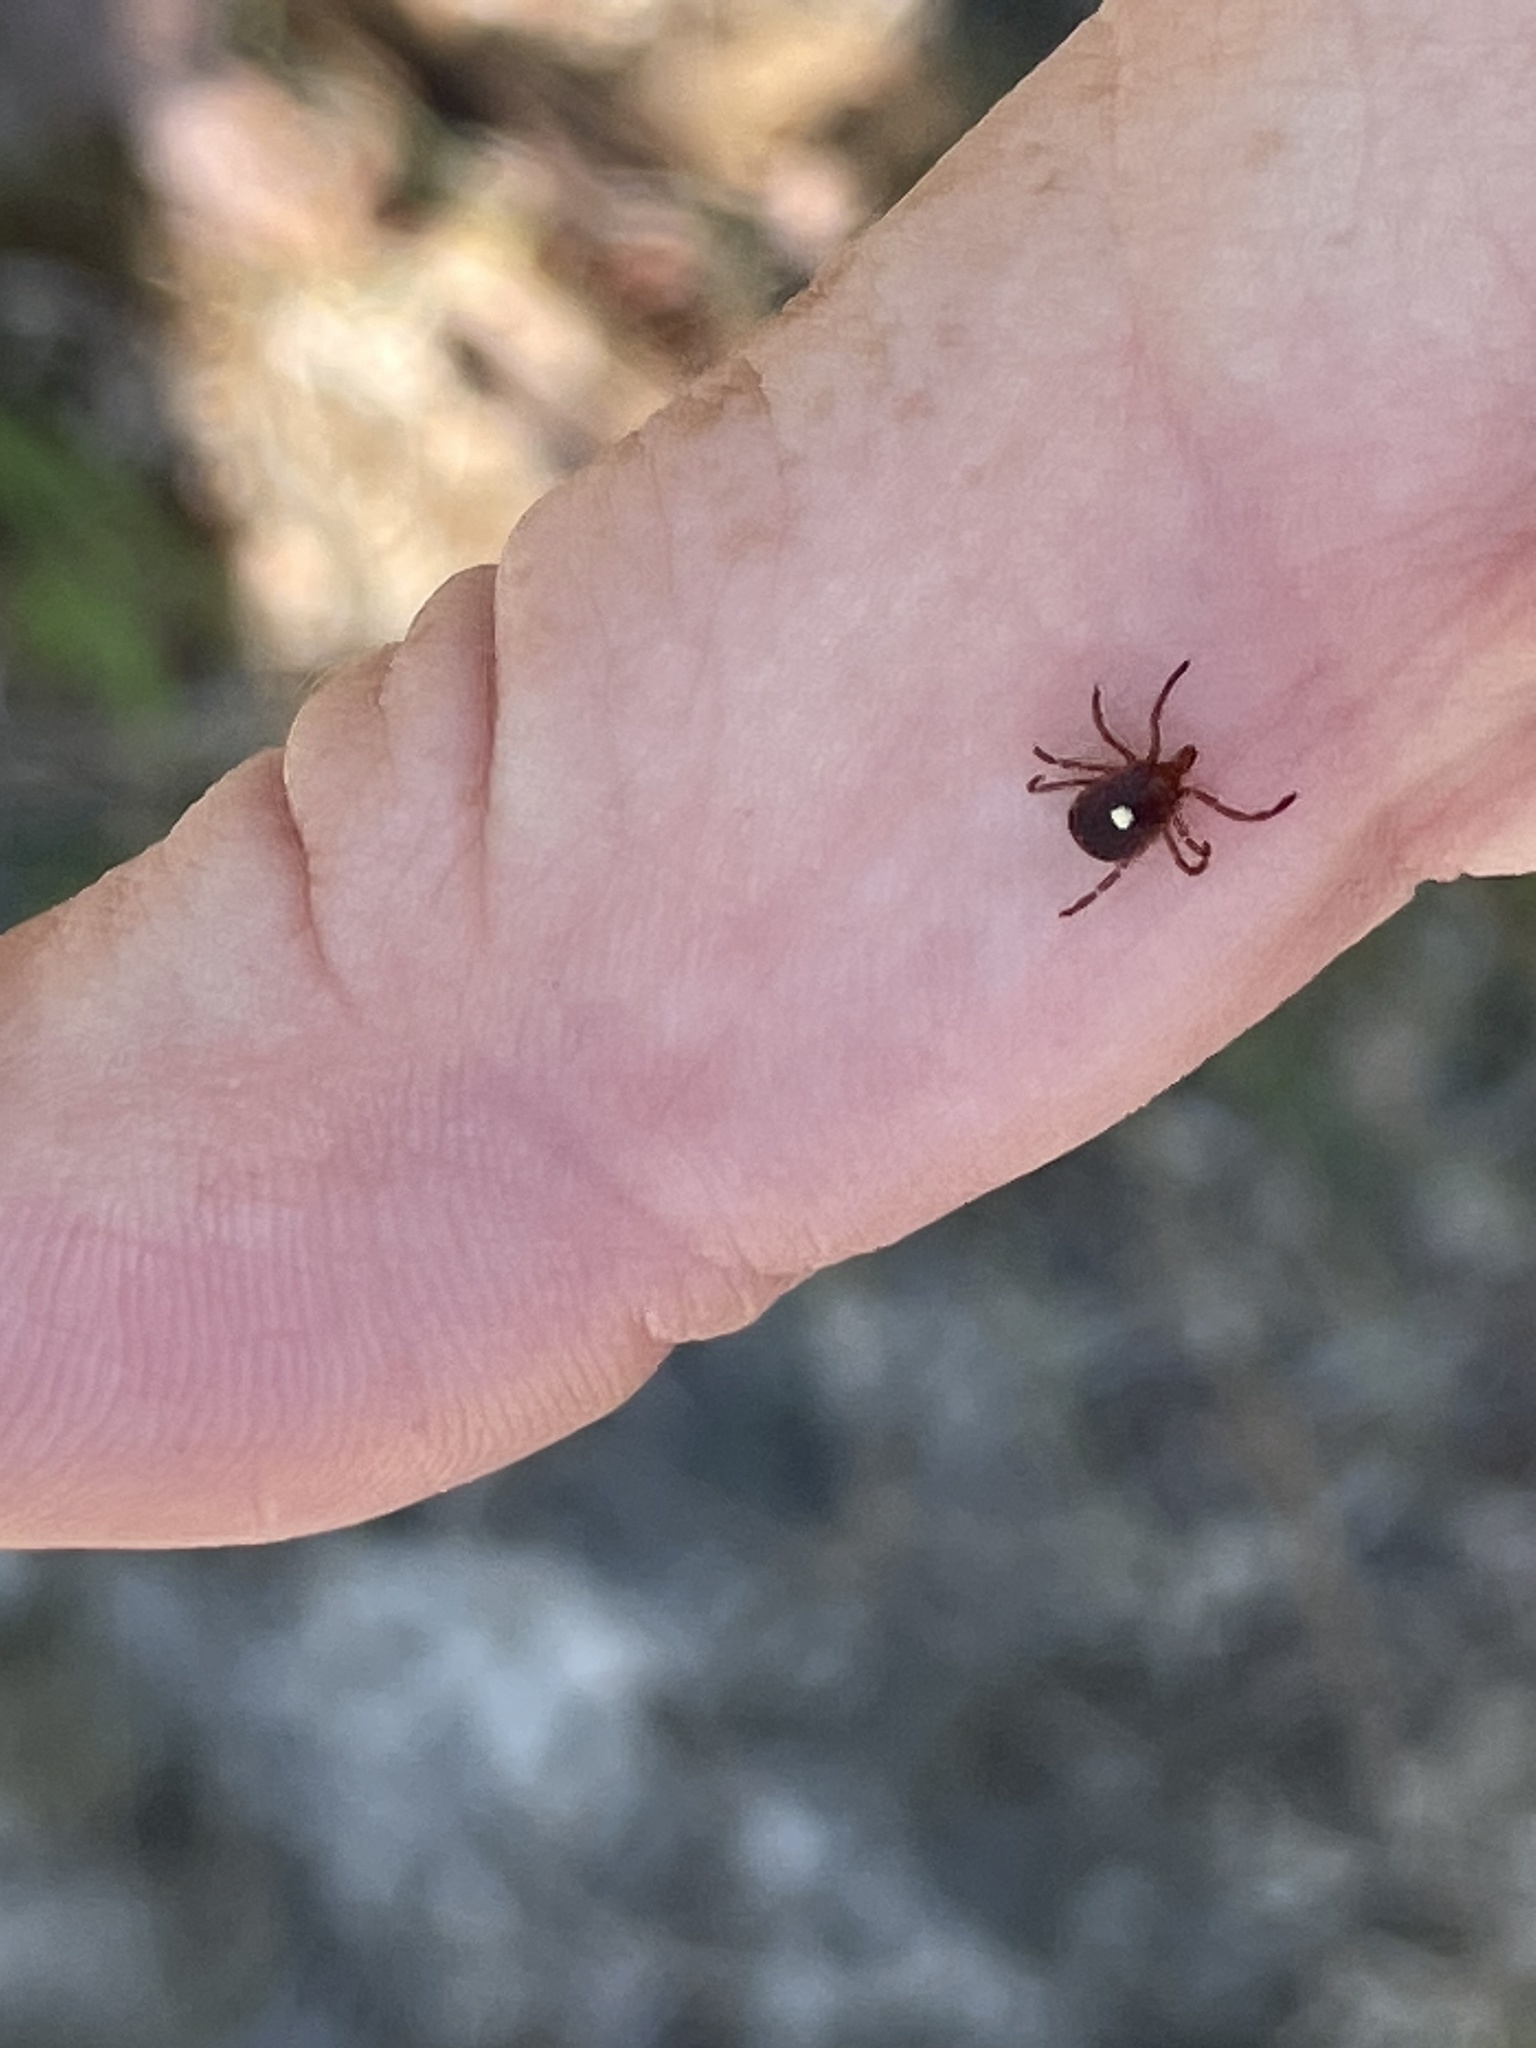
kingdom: Animalia
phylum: Arthropoda
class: Arachnida
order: Ixodida
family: Ixodidae
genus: Amblyomma
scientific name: Amblyomma americanum
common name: Lone star tick
